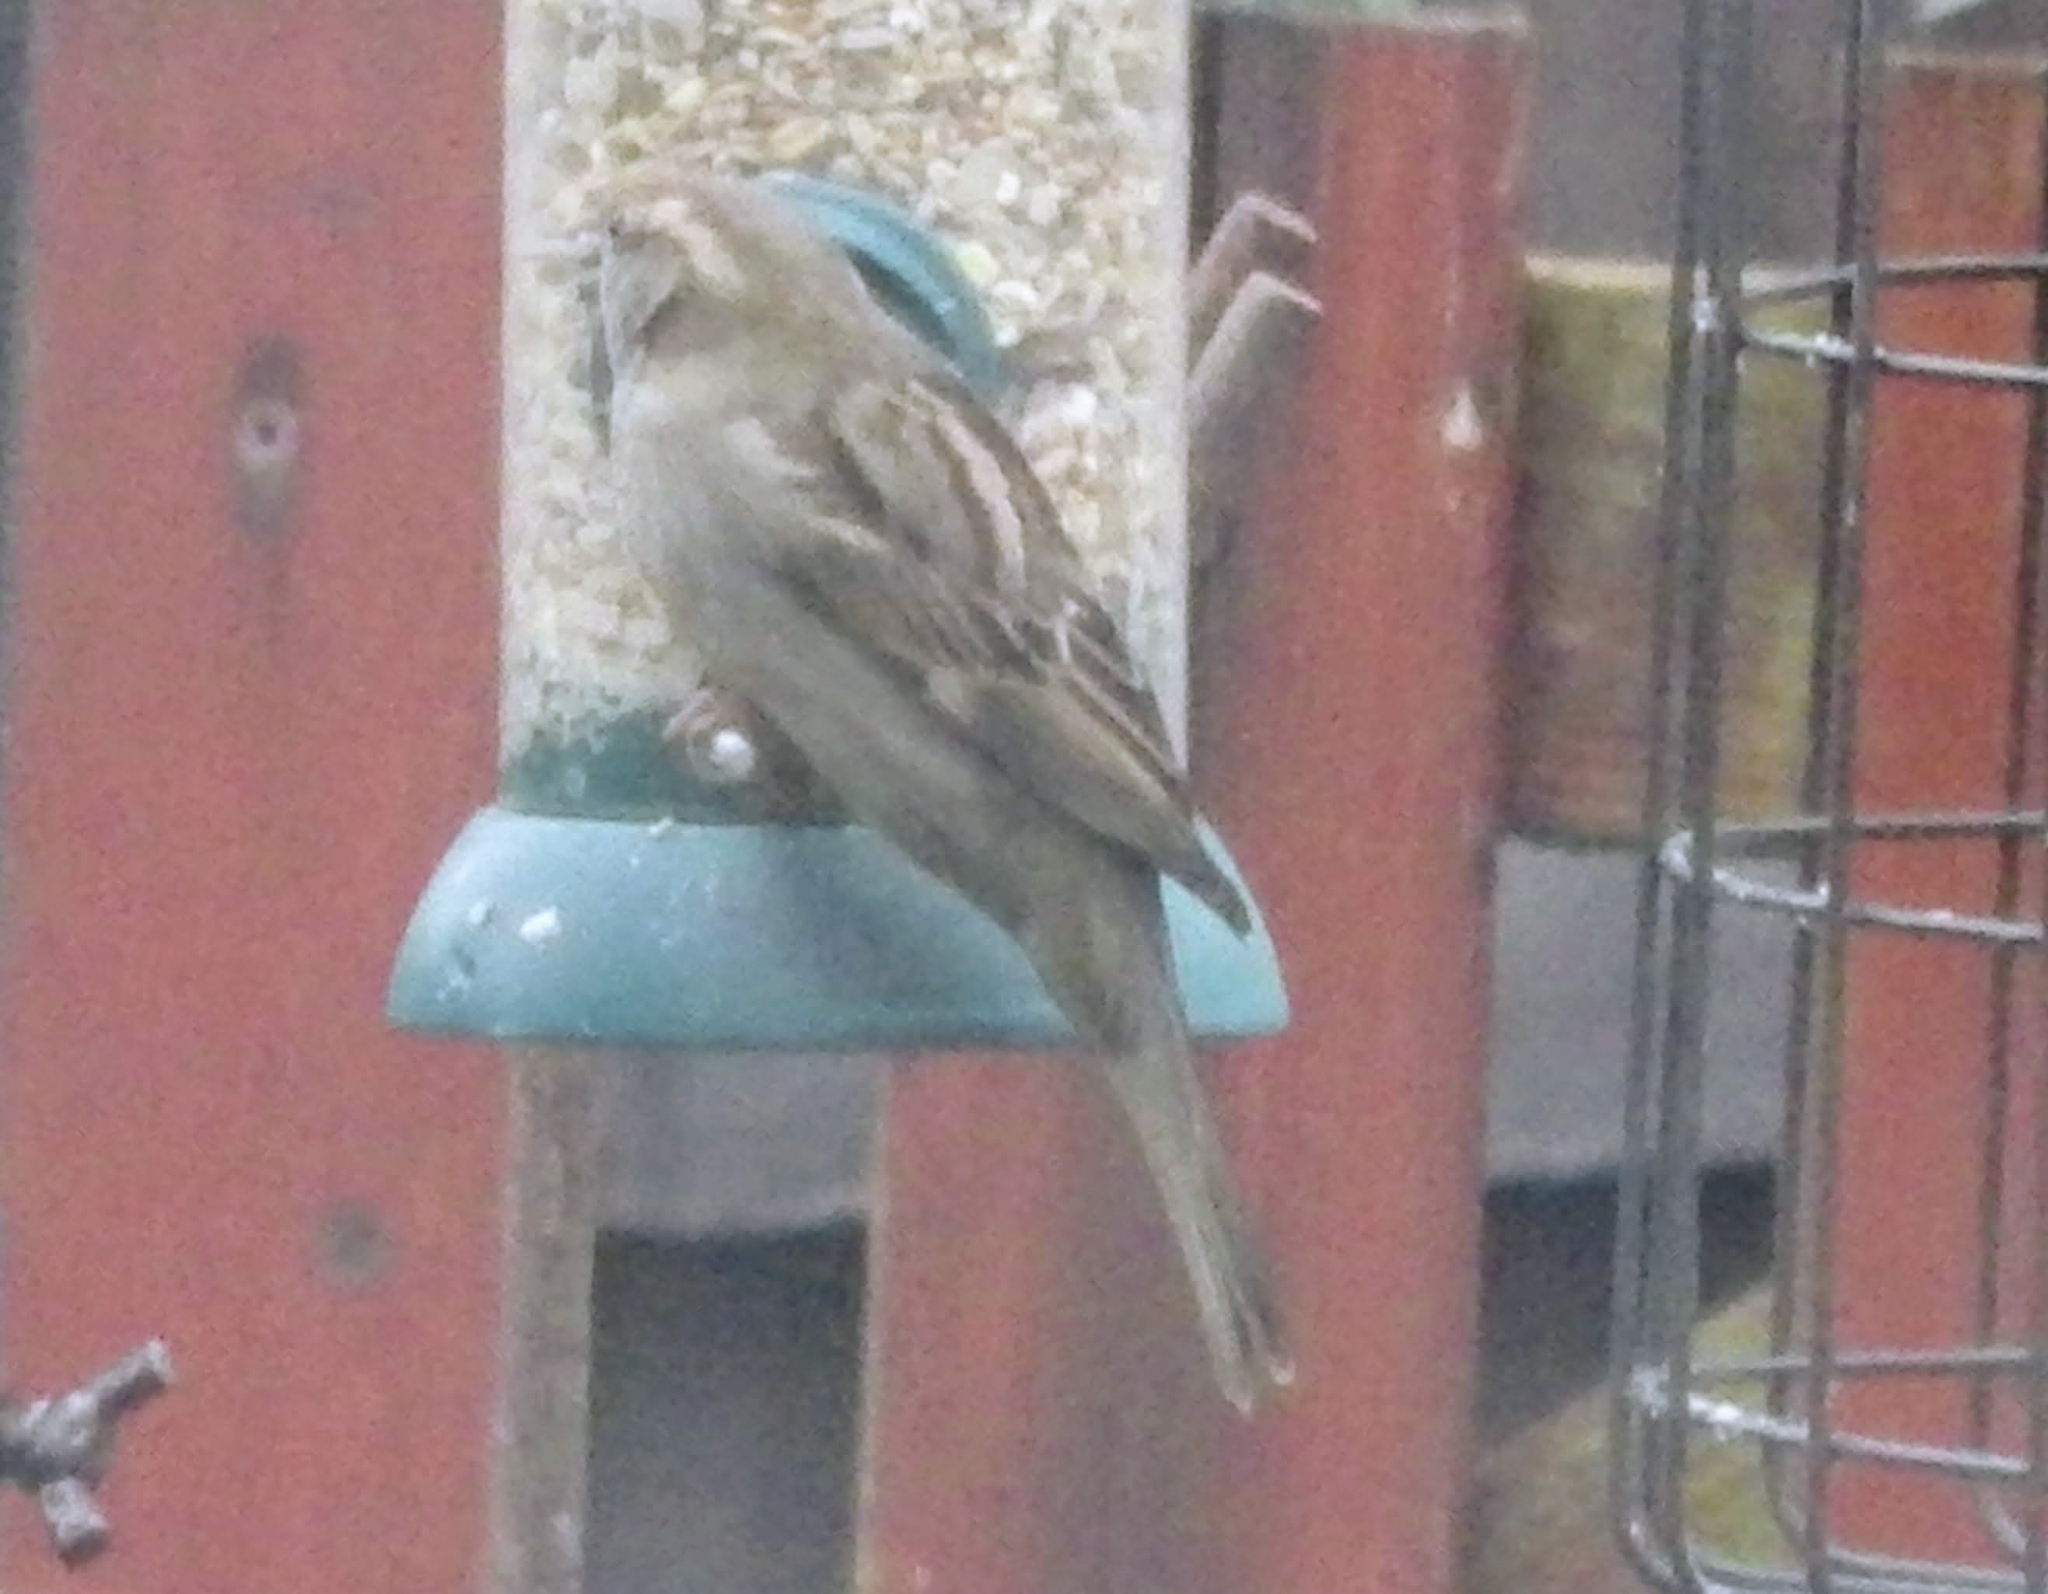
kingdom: Animalia
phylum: Chordata
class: Aves
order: Passeriformes
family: Passeridae
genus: Passer
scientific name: Passer domesticus
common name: House sparrow
